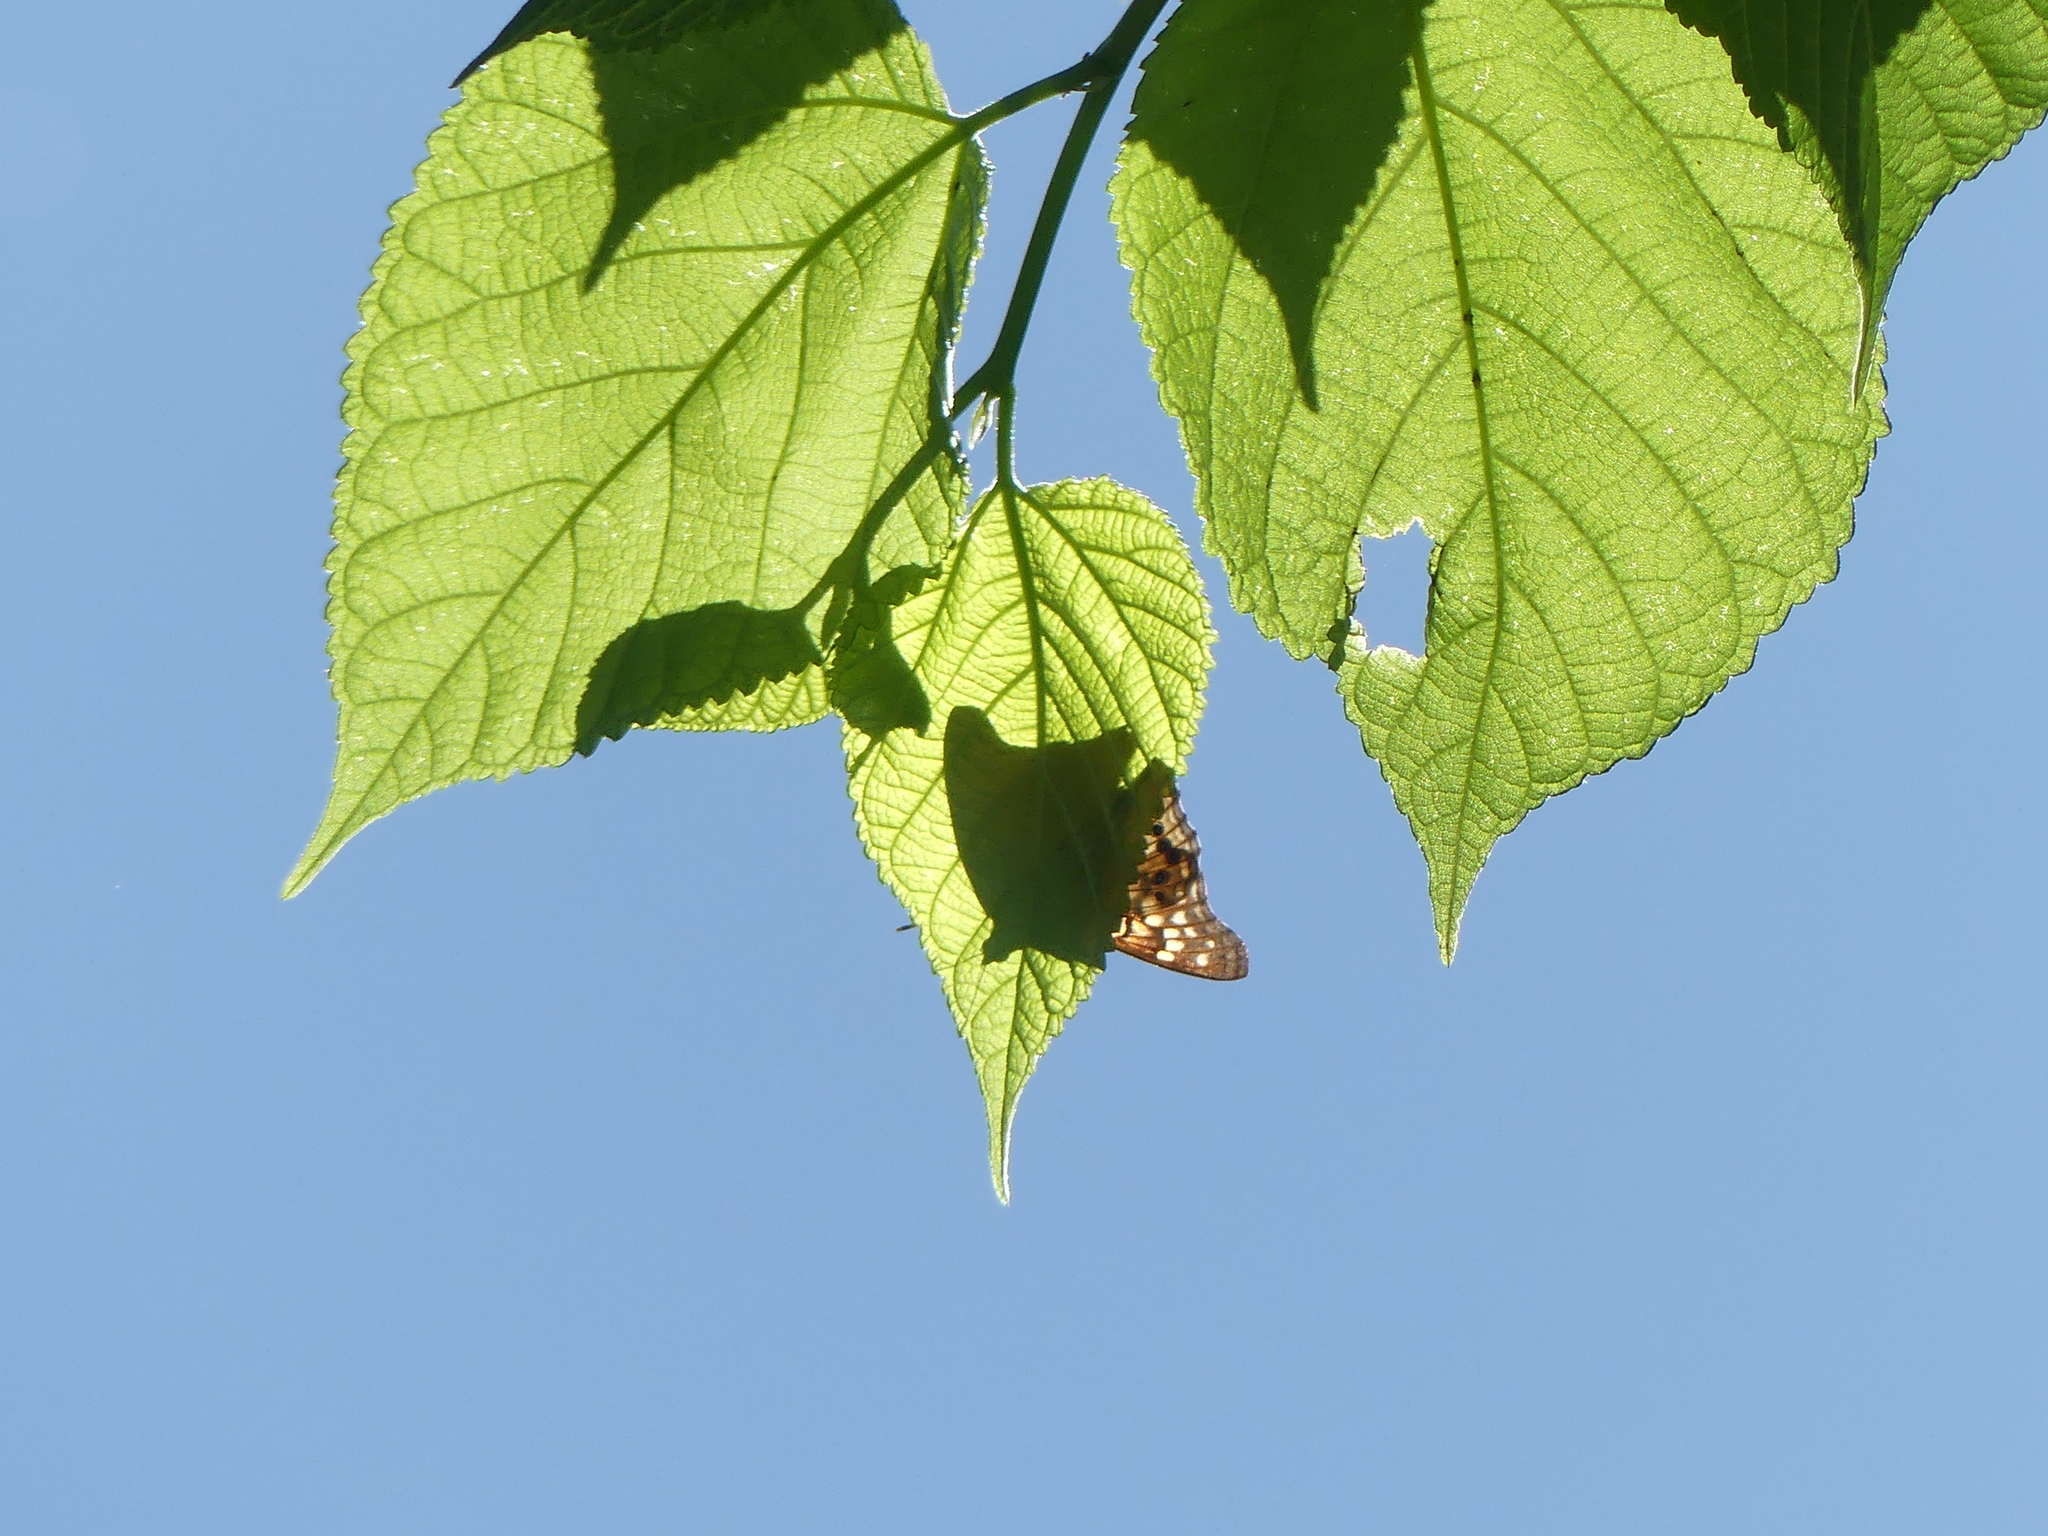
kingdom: Animalia
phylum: Arthropoda
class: Insecta
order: Lepidoptera
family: Nymphalidae
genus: Asterocampa
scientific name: Asterocampa clyton
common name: Tawny emperor
